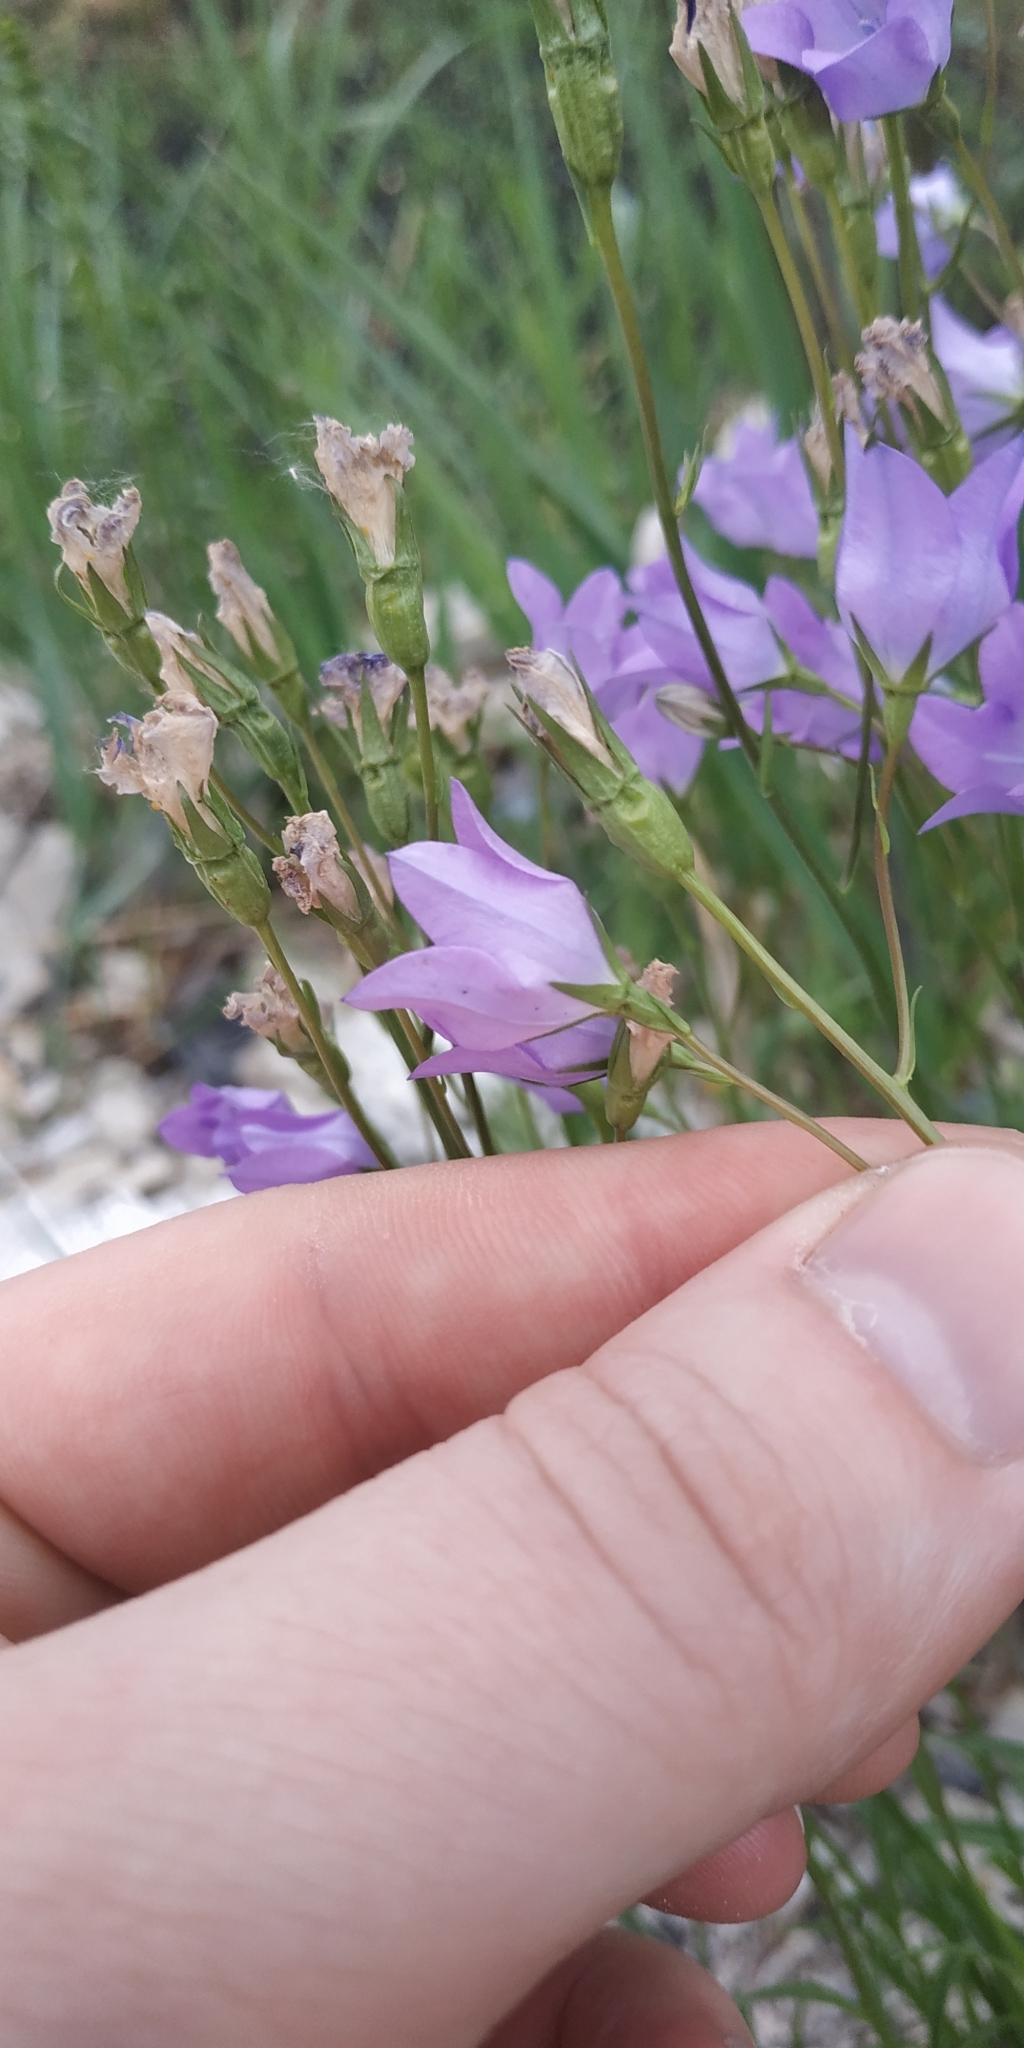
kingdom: Plantae
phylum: Tracheophyta
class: Magnoliopsida
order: Asterales
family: Campanulaceae
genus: Campanula
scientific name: Campanula stevenii
